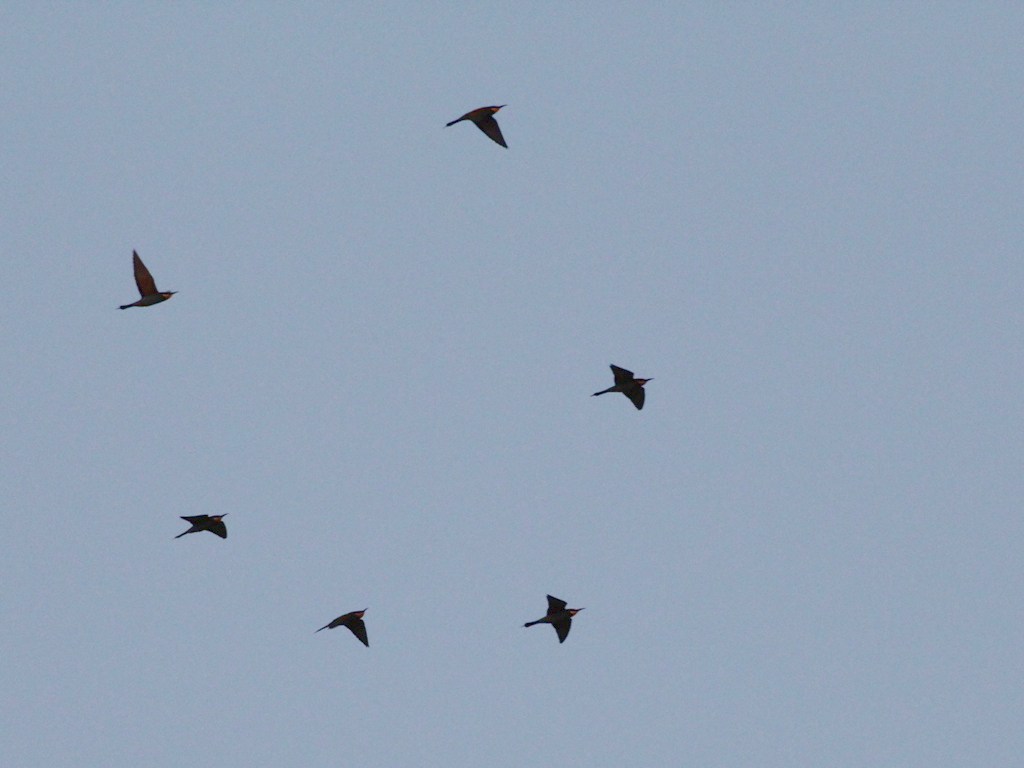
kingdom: Animalia
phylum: Chordata
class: Aves
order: Coraciiformes
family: Meropidae
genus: Merops
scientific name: Merops apiaster
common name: European bee-eater
